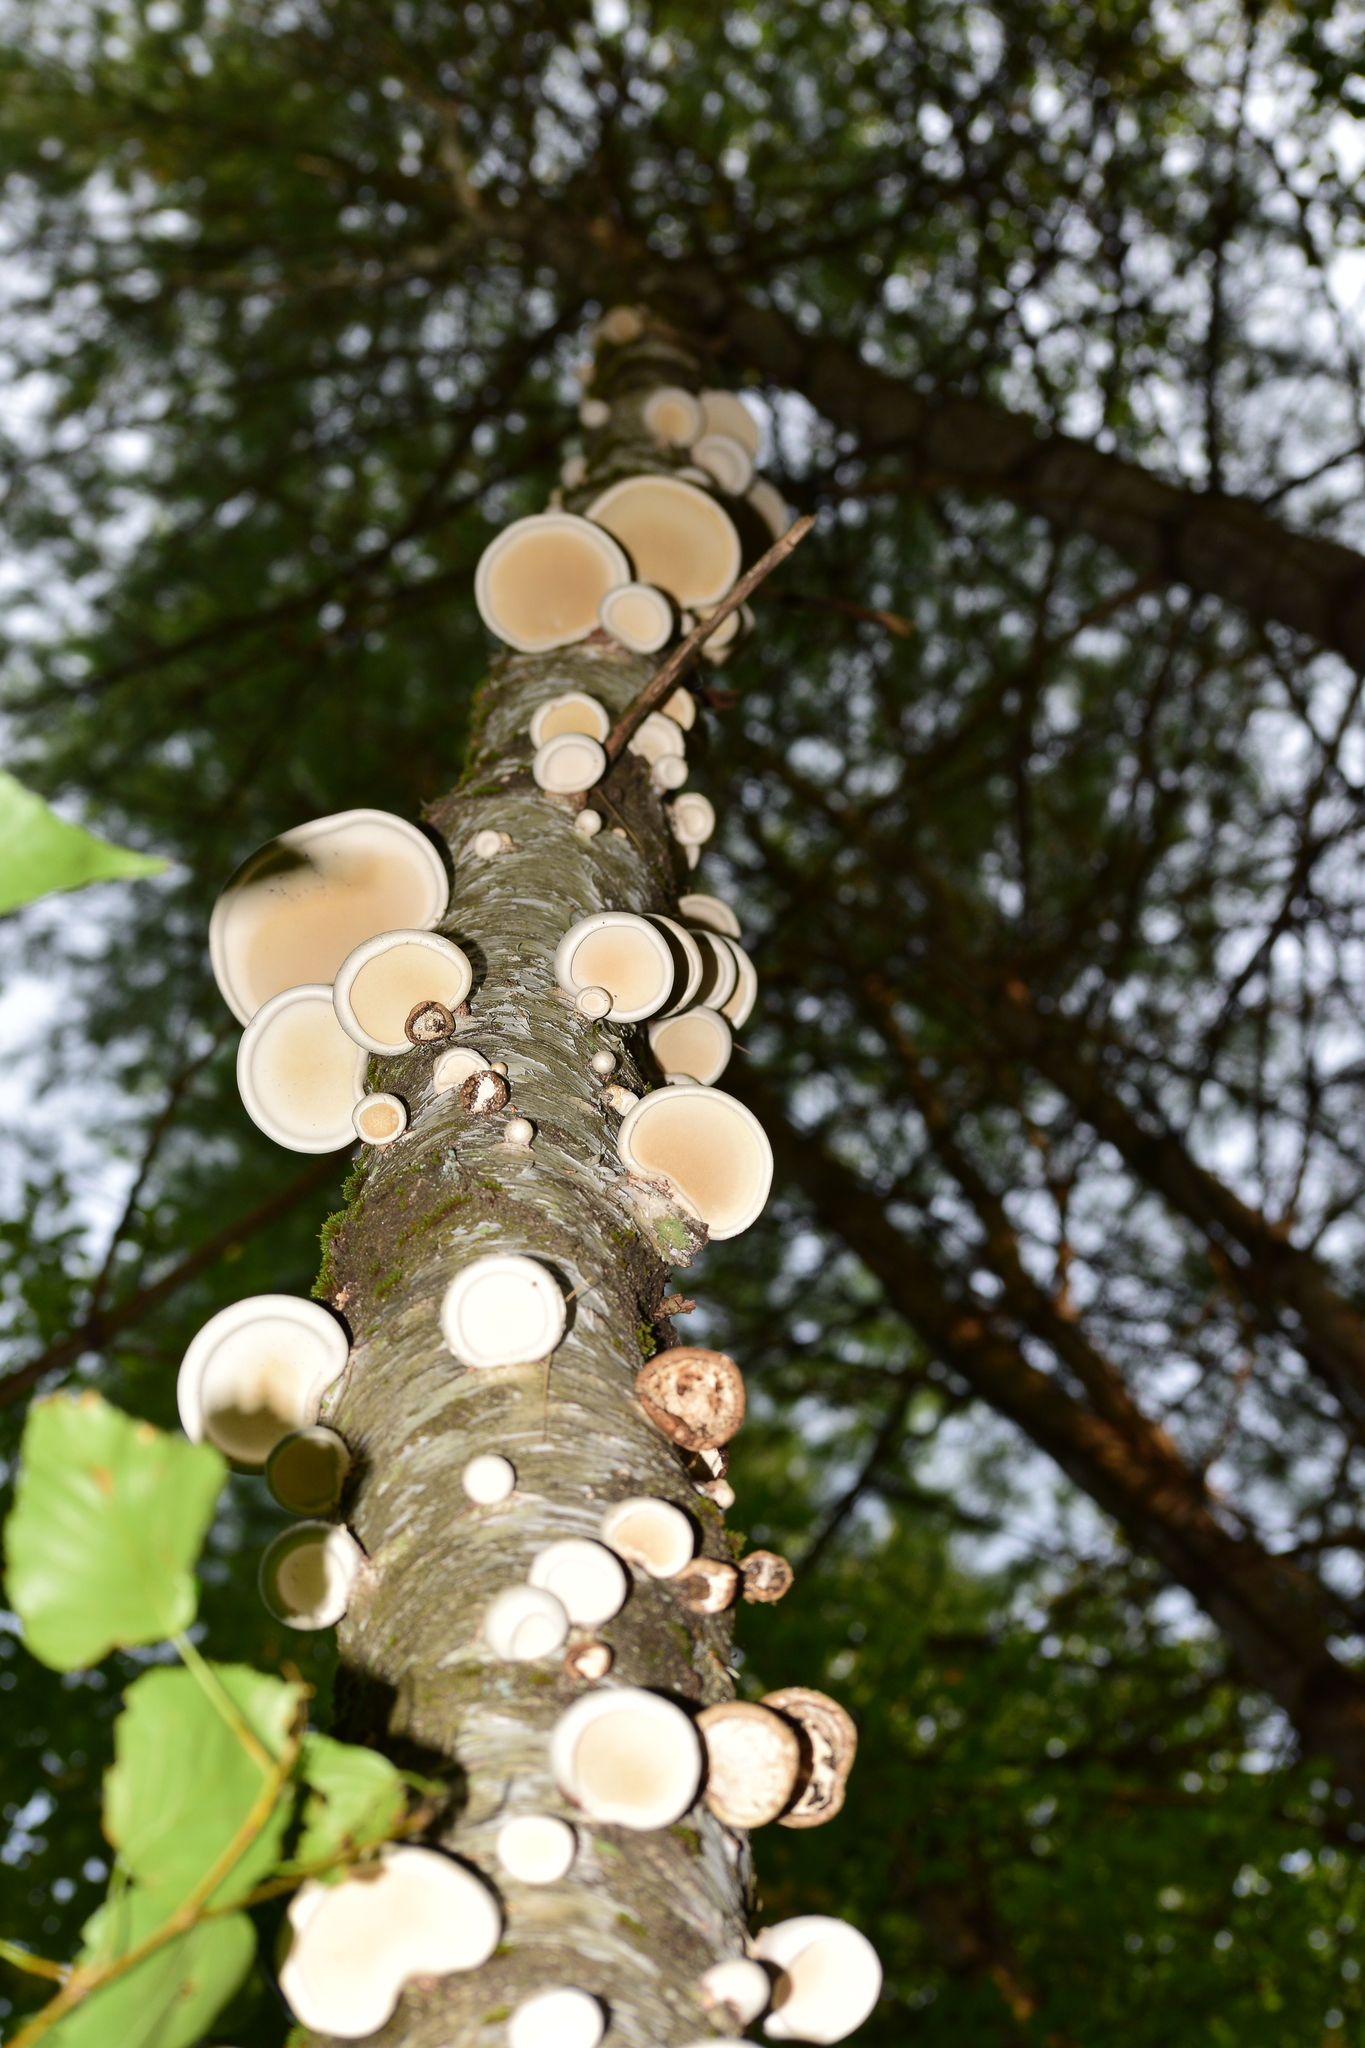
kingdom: Fungi
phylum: Basidiomycota
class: Agaricomycetes
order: Polyporales
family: Fomitopsidaceae
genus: Fomitopsis
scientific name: Fomitopsis betulina
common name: Birch polypore
